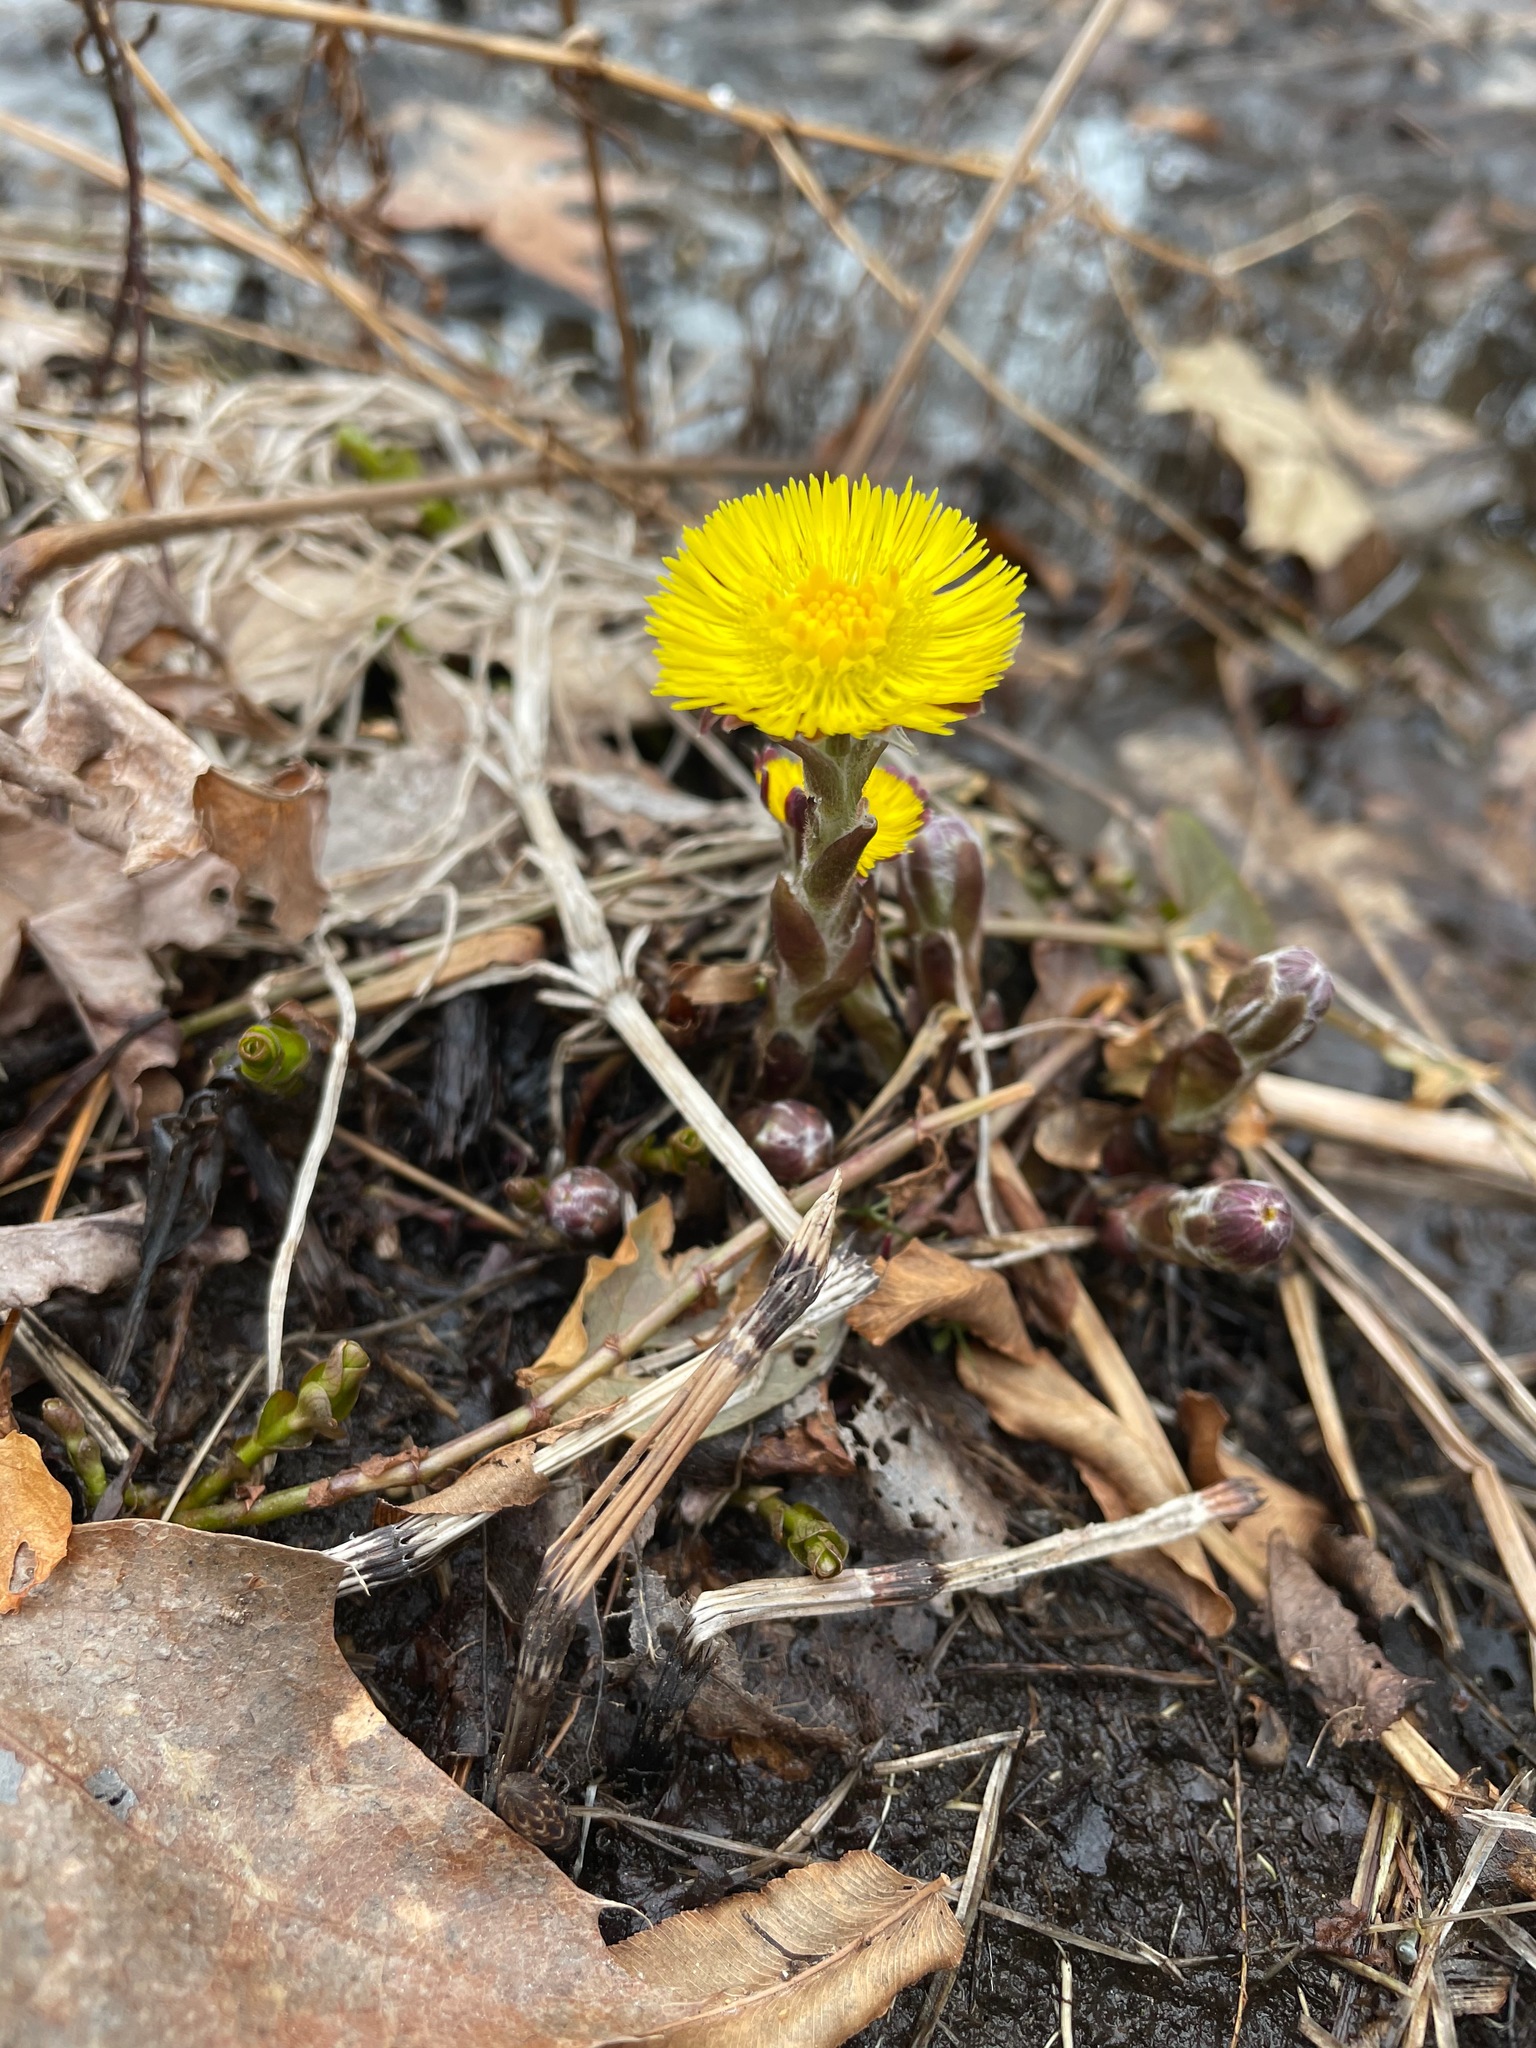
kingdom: Plantae
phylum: Tracheophyta
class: Magnoliopsida
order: Asterales
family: Asteraceae
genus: Tussilago
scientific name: Tussilago farfara
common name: Coltsfoot
